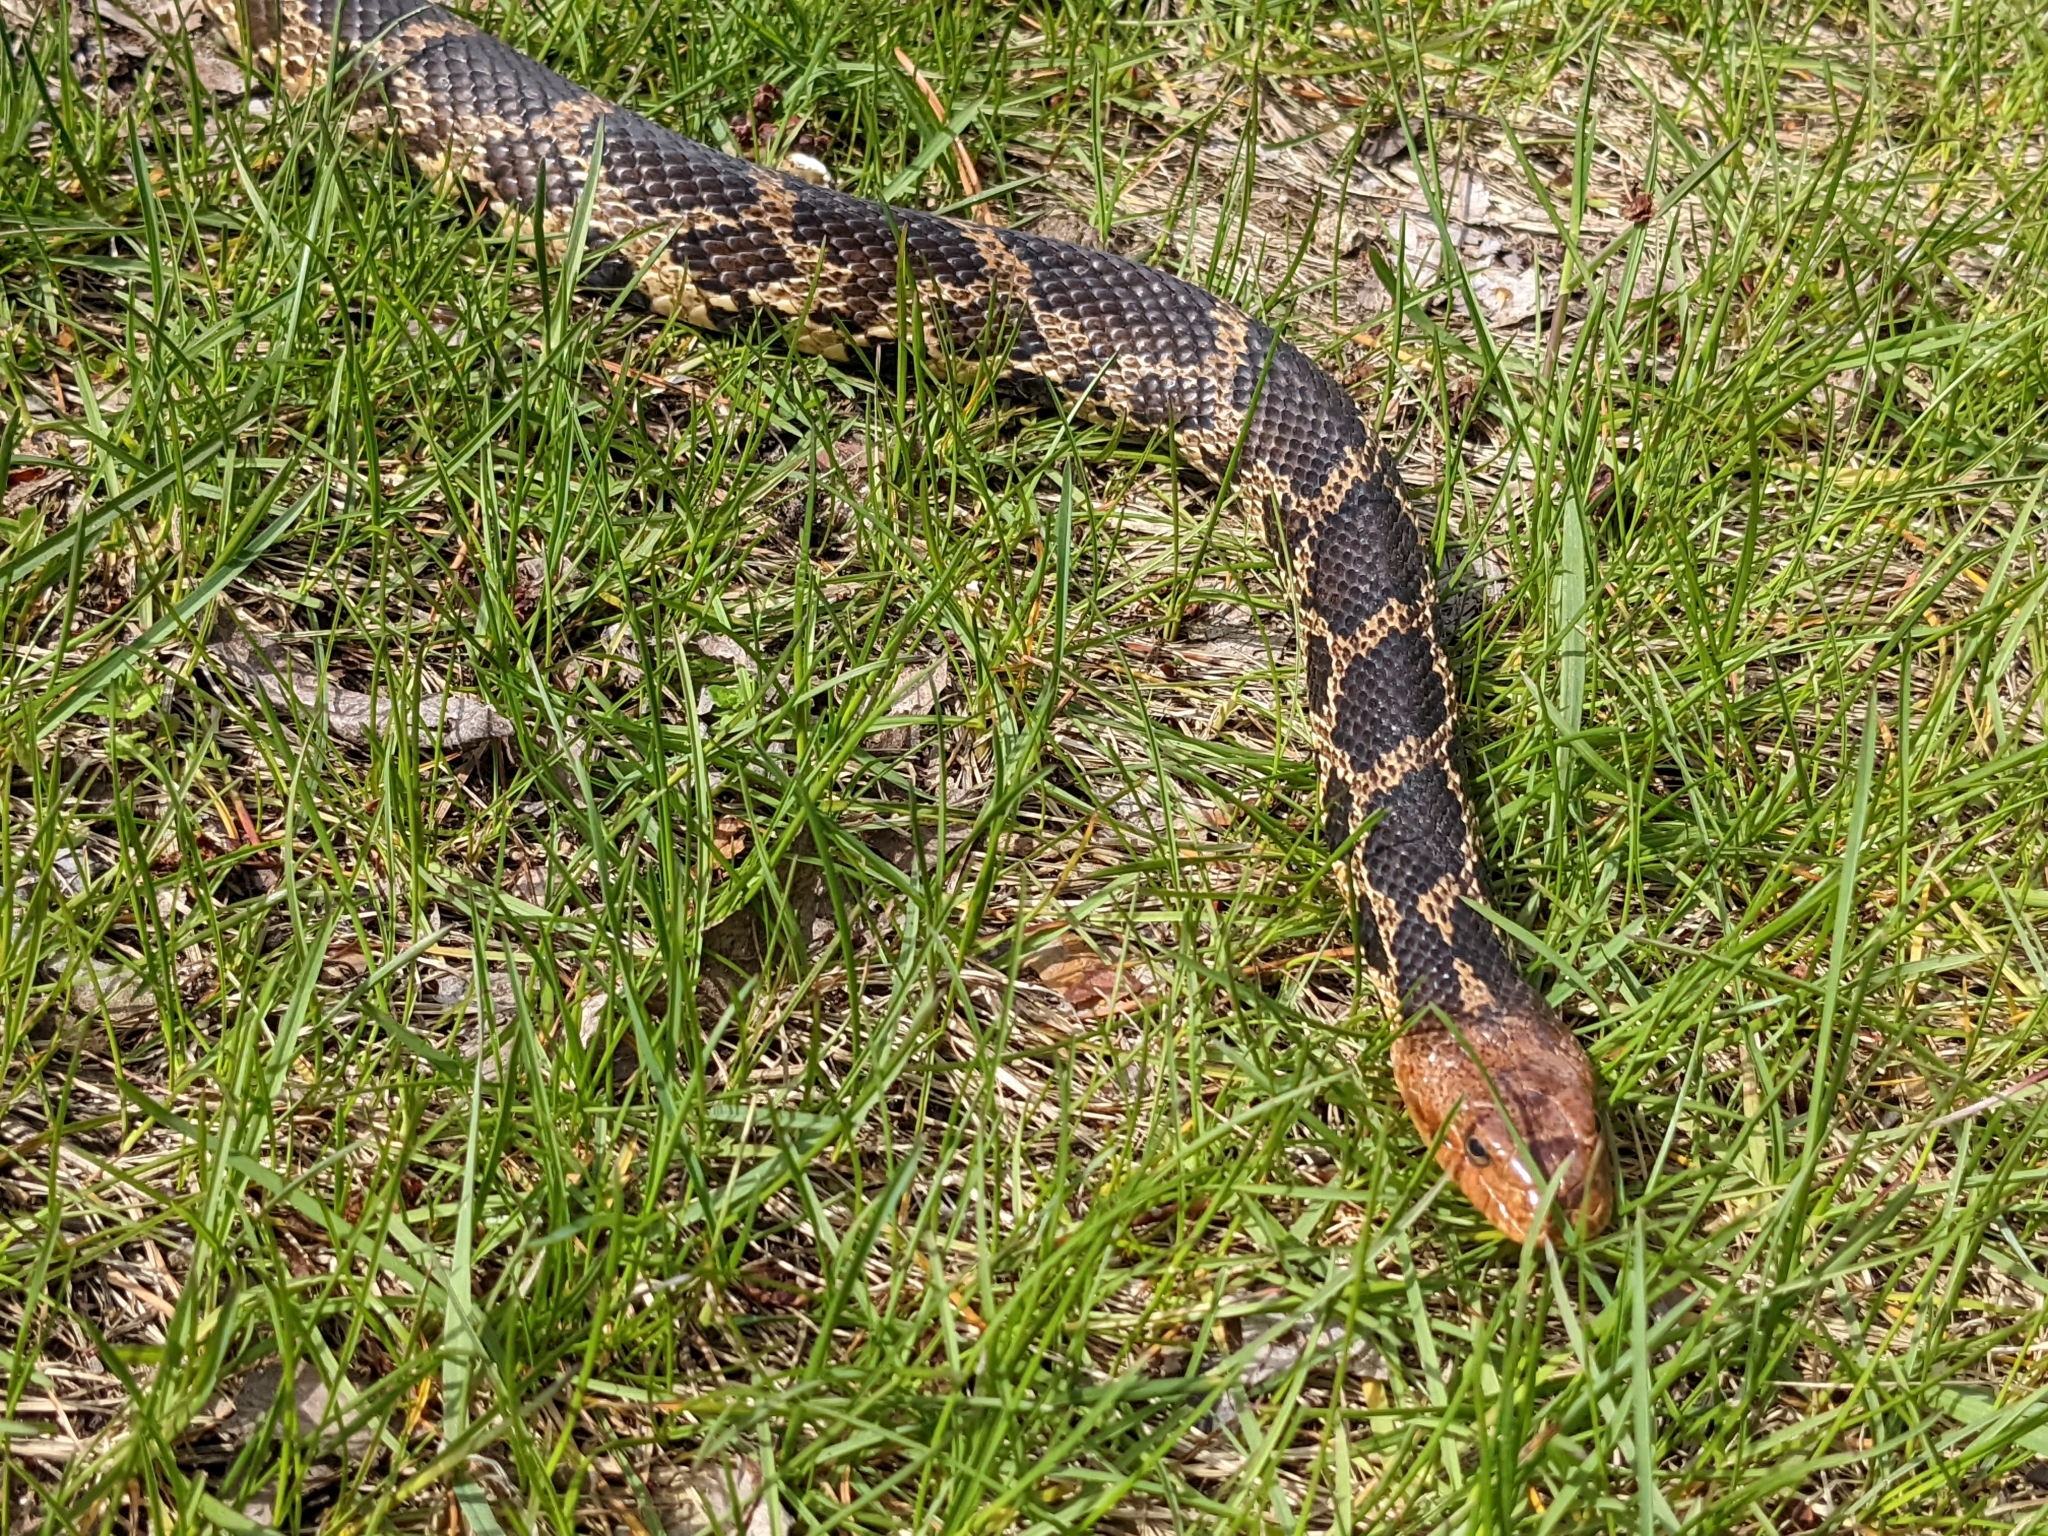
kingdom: Animalia
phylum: Chordata
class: Squamata
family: Colubridae
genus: Pantherophis
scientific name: Pantherophis vulpinus
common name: Eastern fox snake
